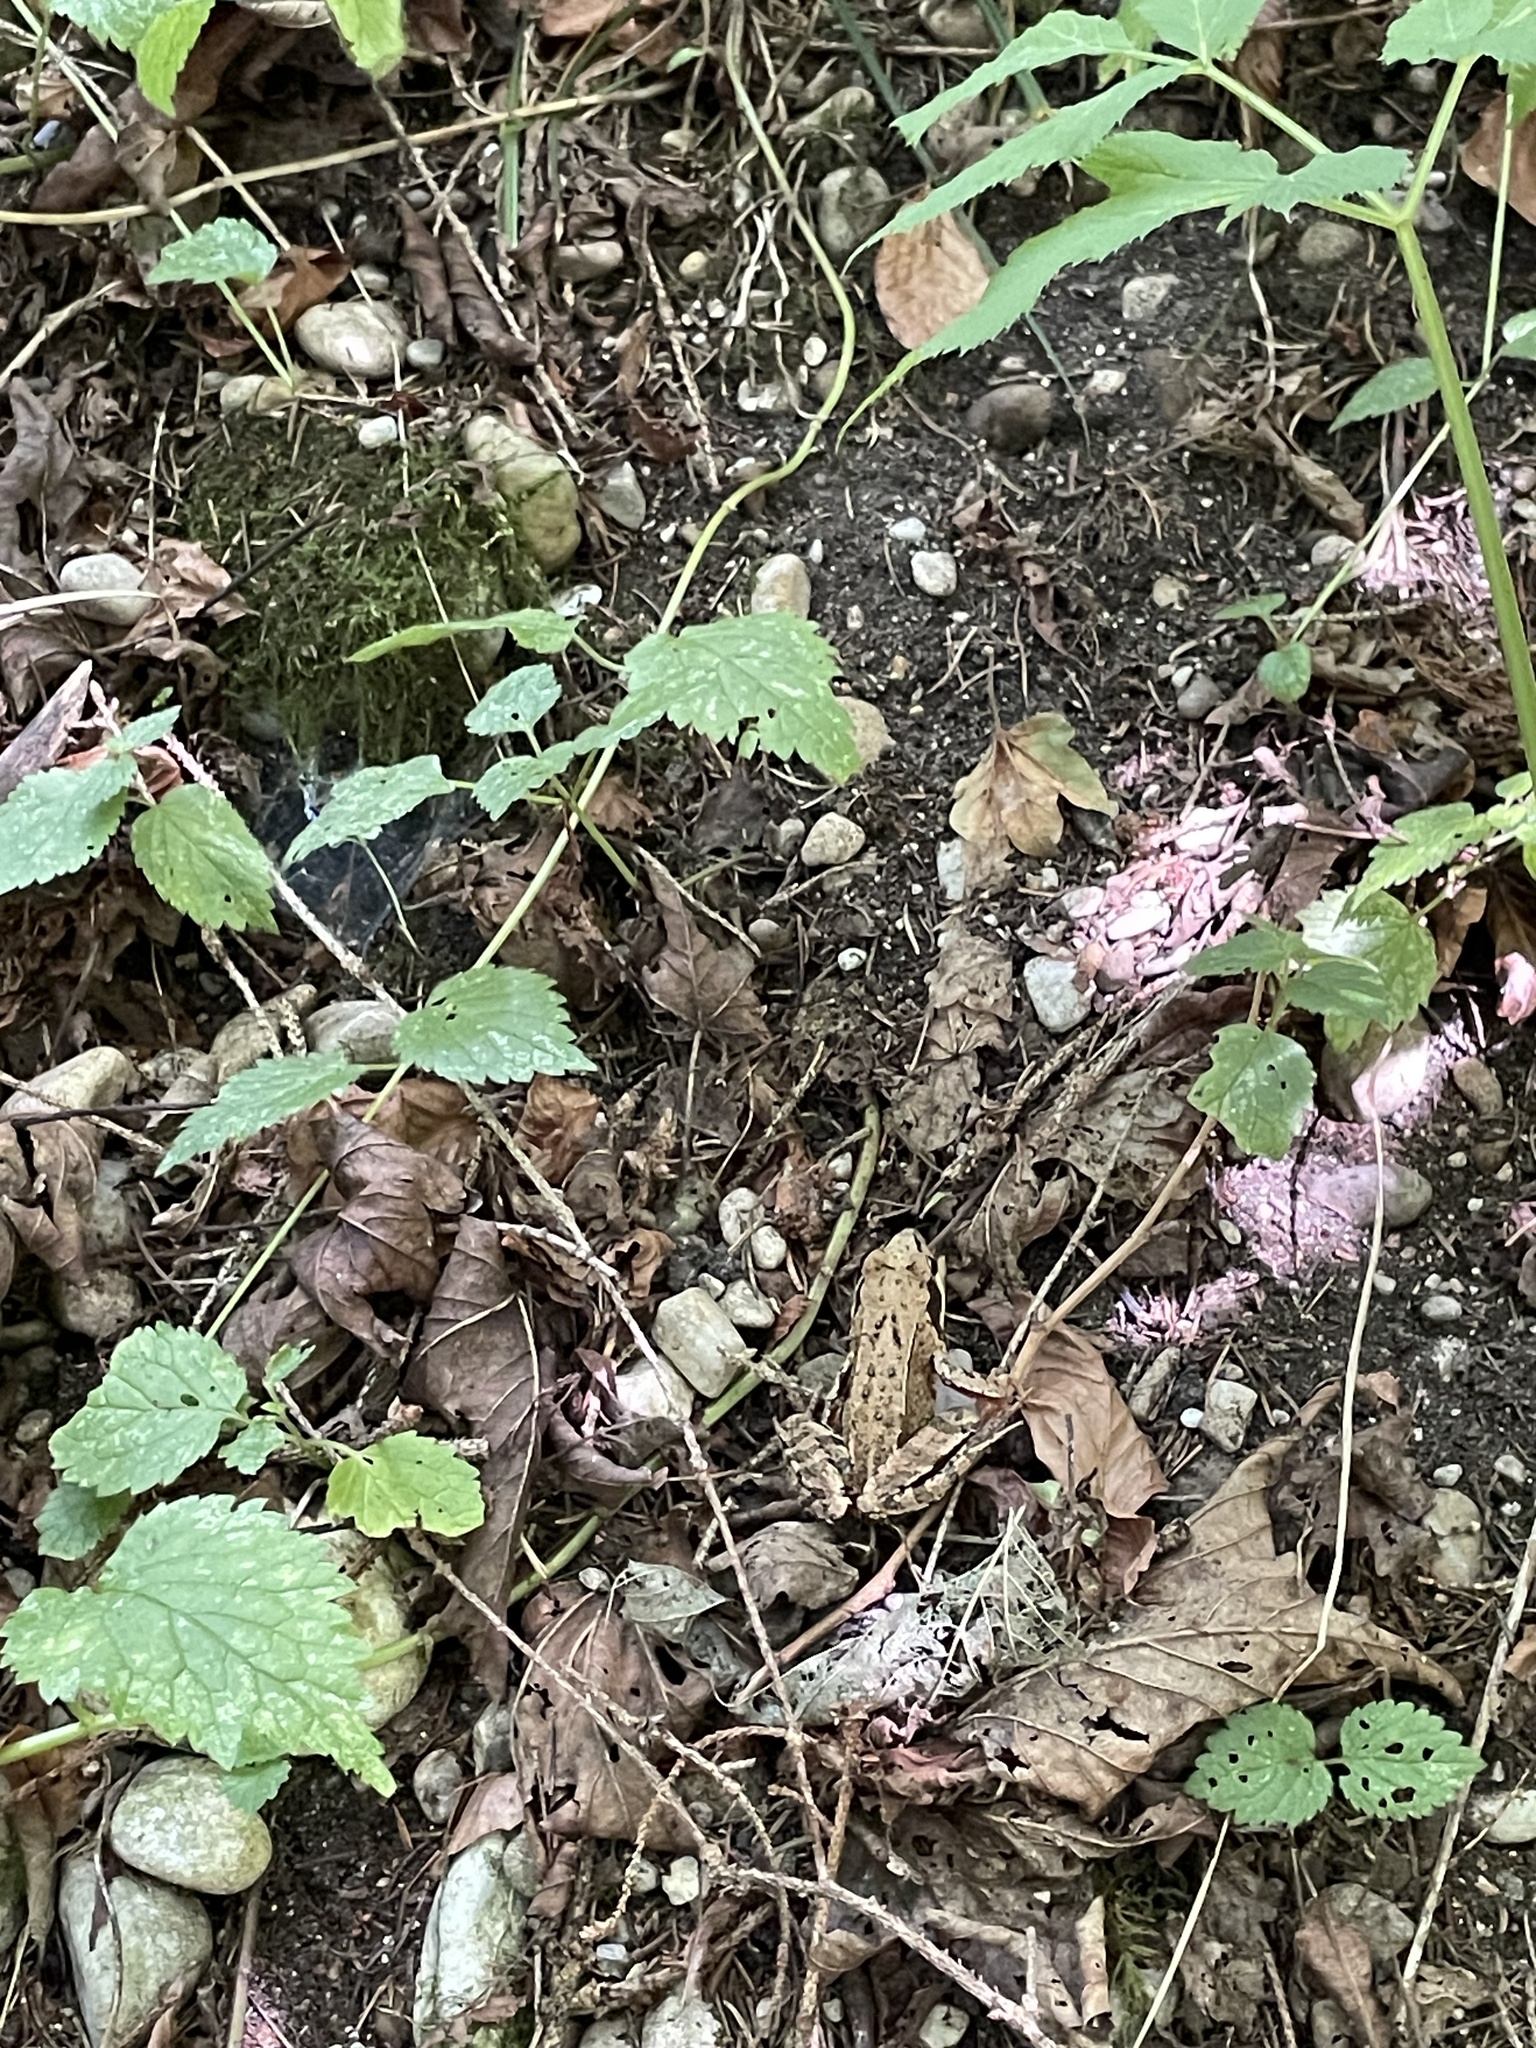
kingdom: Animalia
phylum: Chordata
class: Amphibia
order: Anura
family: Ranidae
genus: Rana
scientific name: Rana temporaria
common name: Common frog
